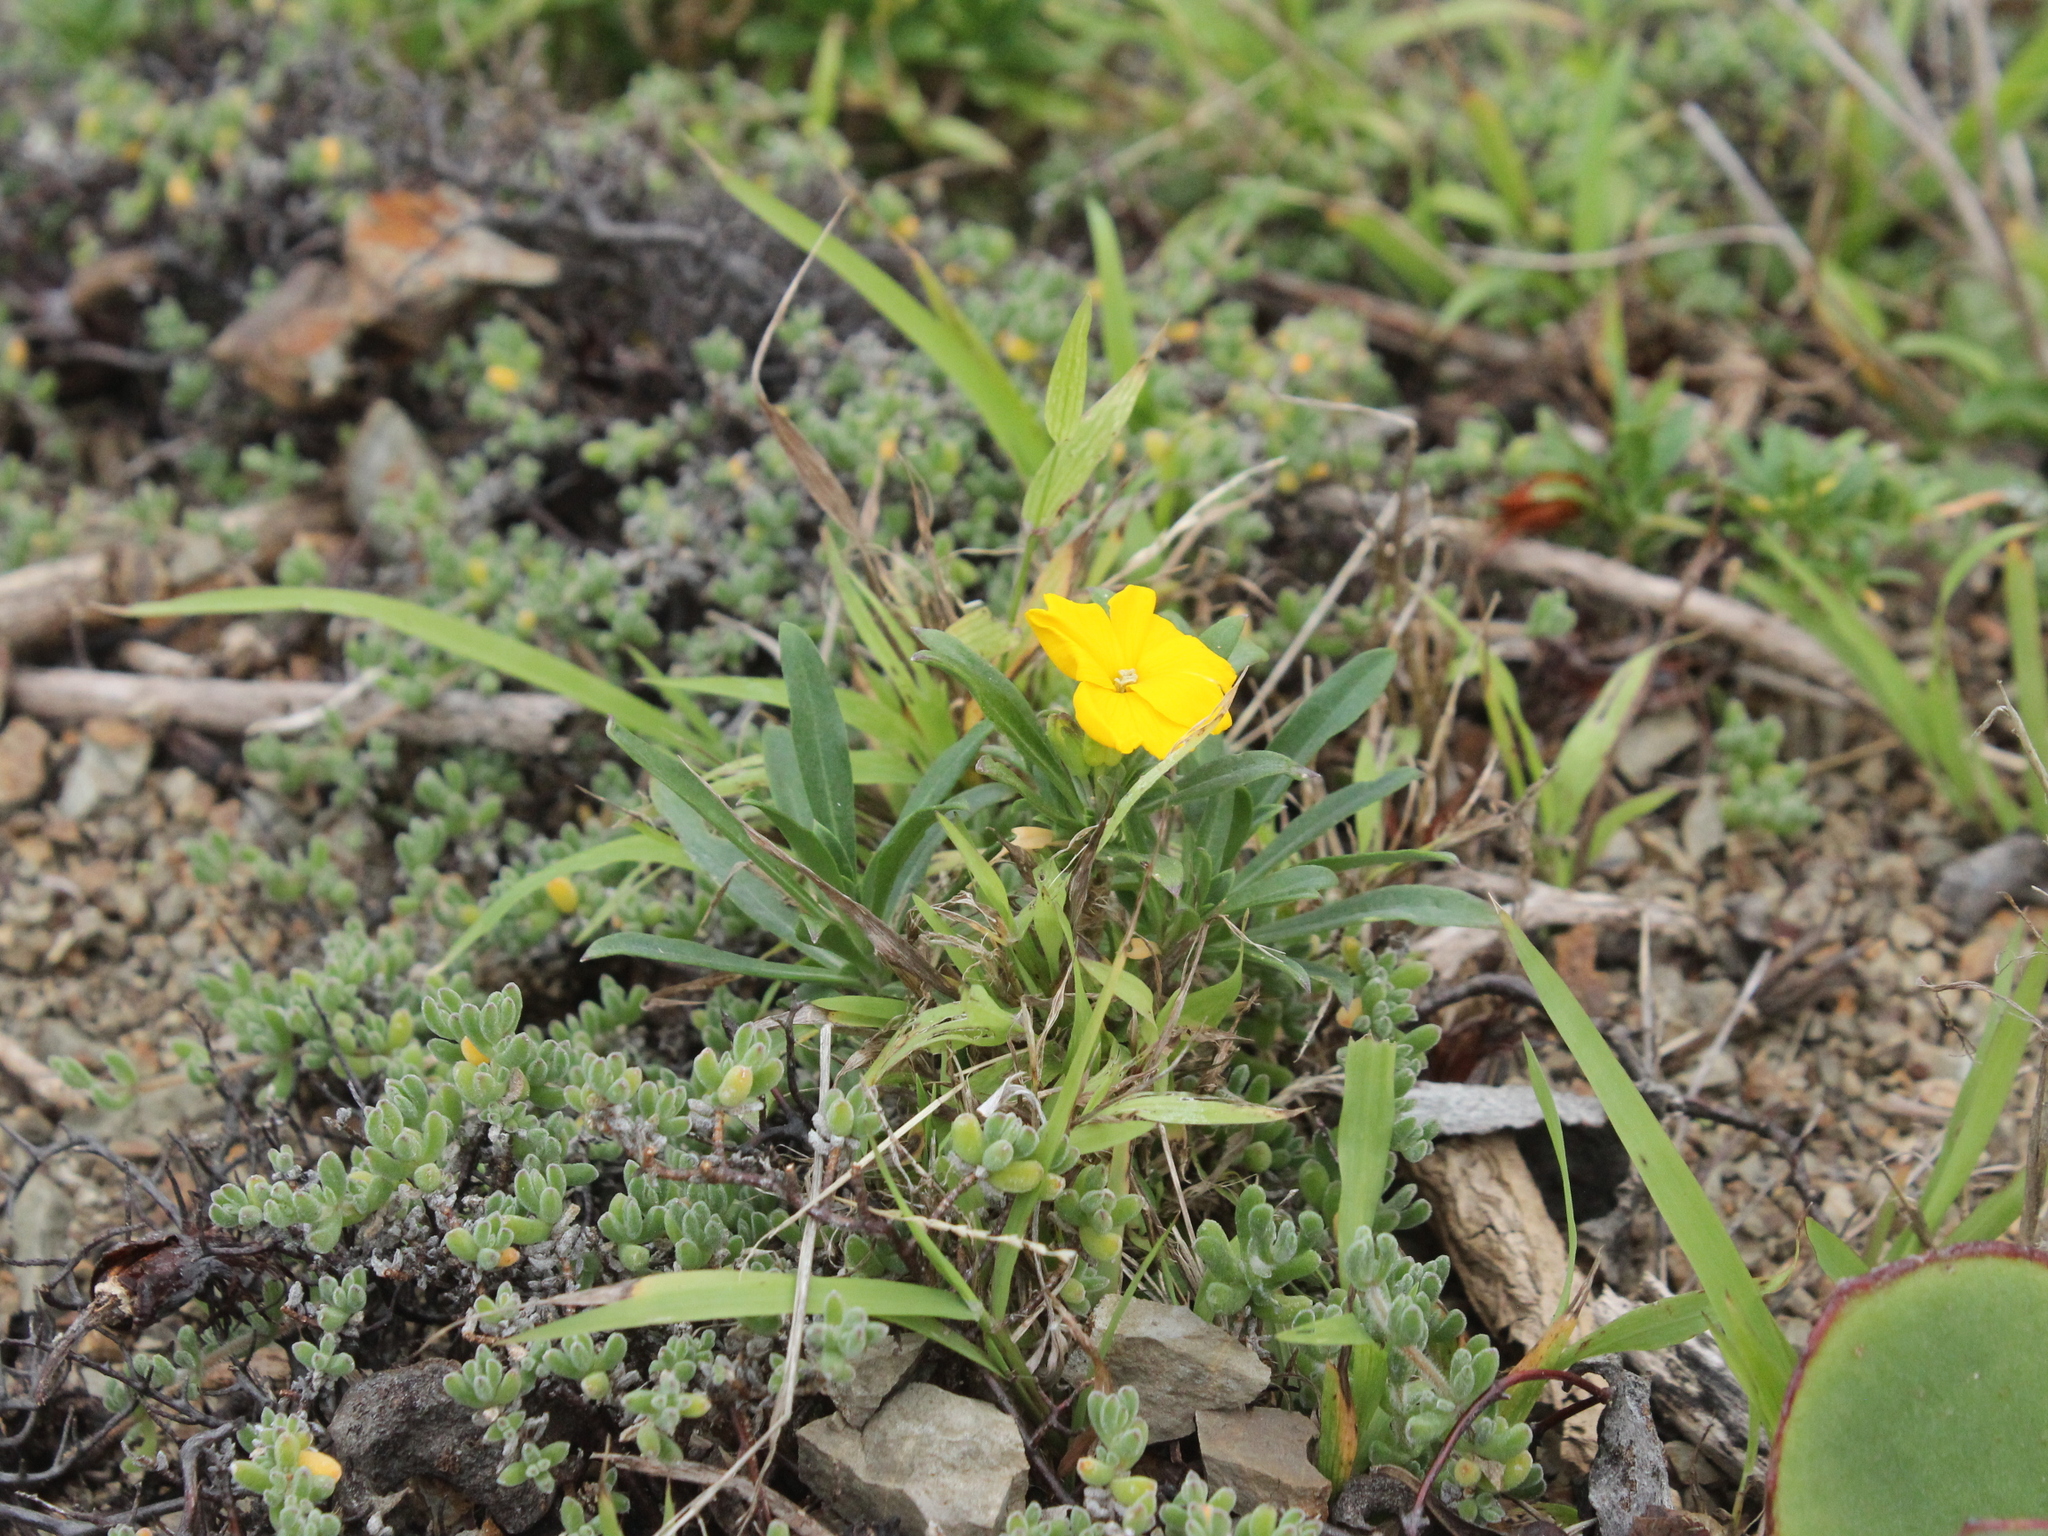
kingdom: Plantae
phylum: Tracheophyta
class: Magnoliopsida
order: Brassicales
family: Brassicaceae
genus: Erysimum
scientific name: Erysimum cheiri
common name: Wallflower
